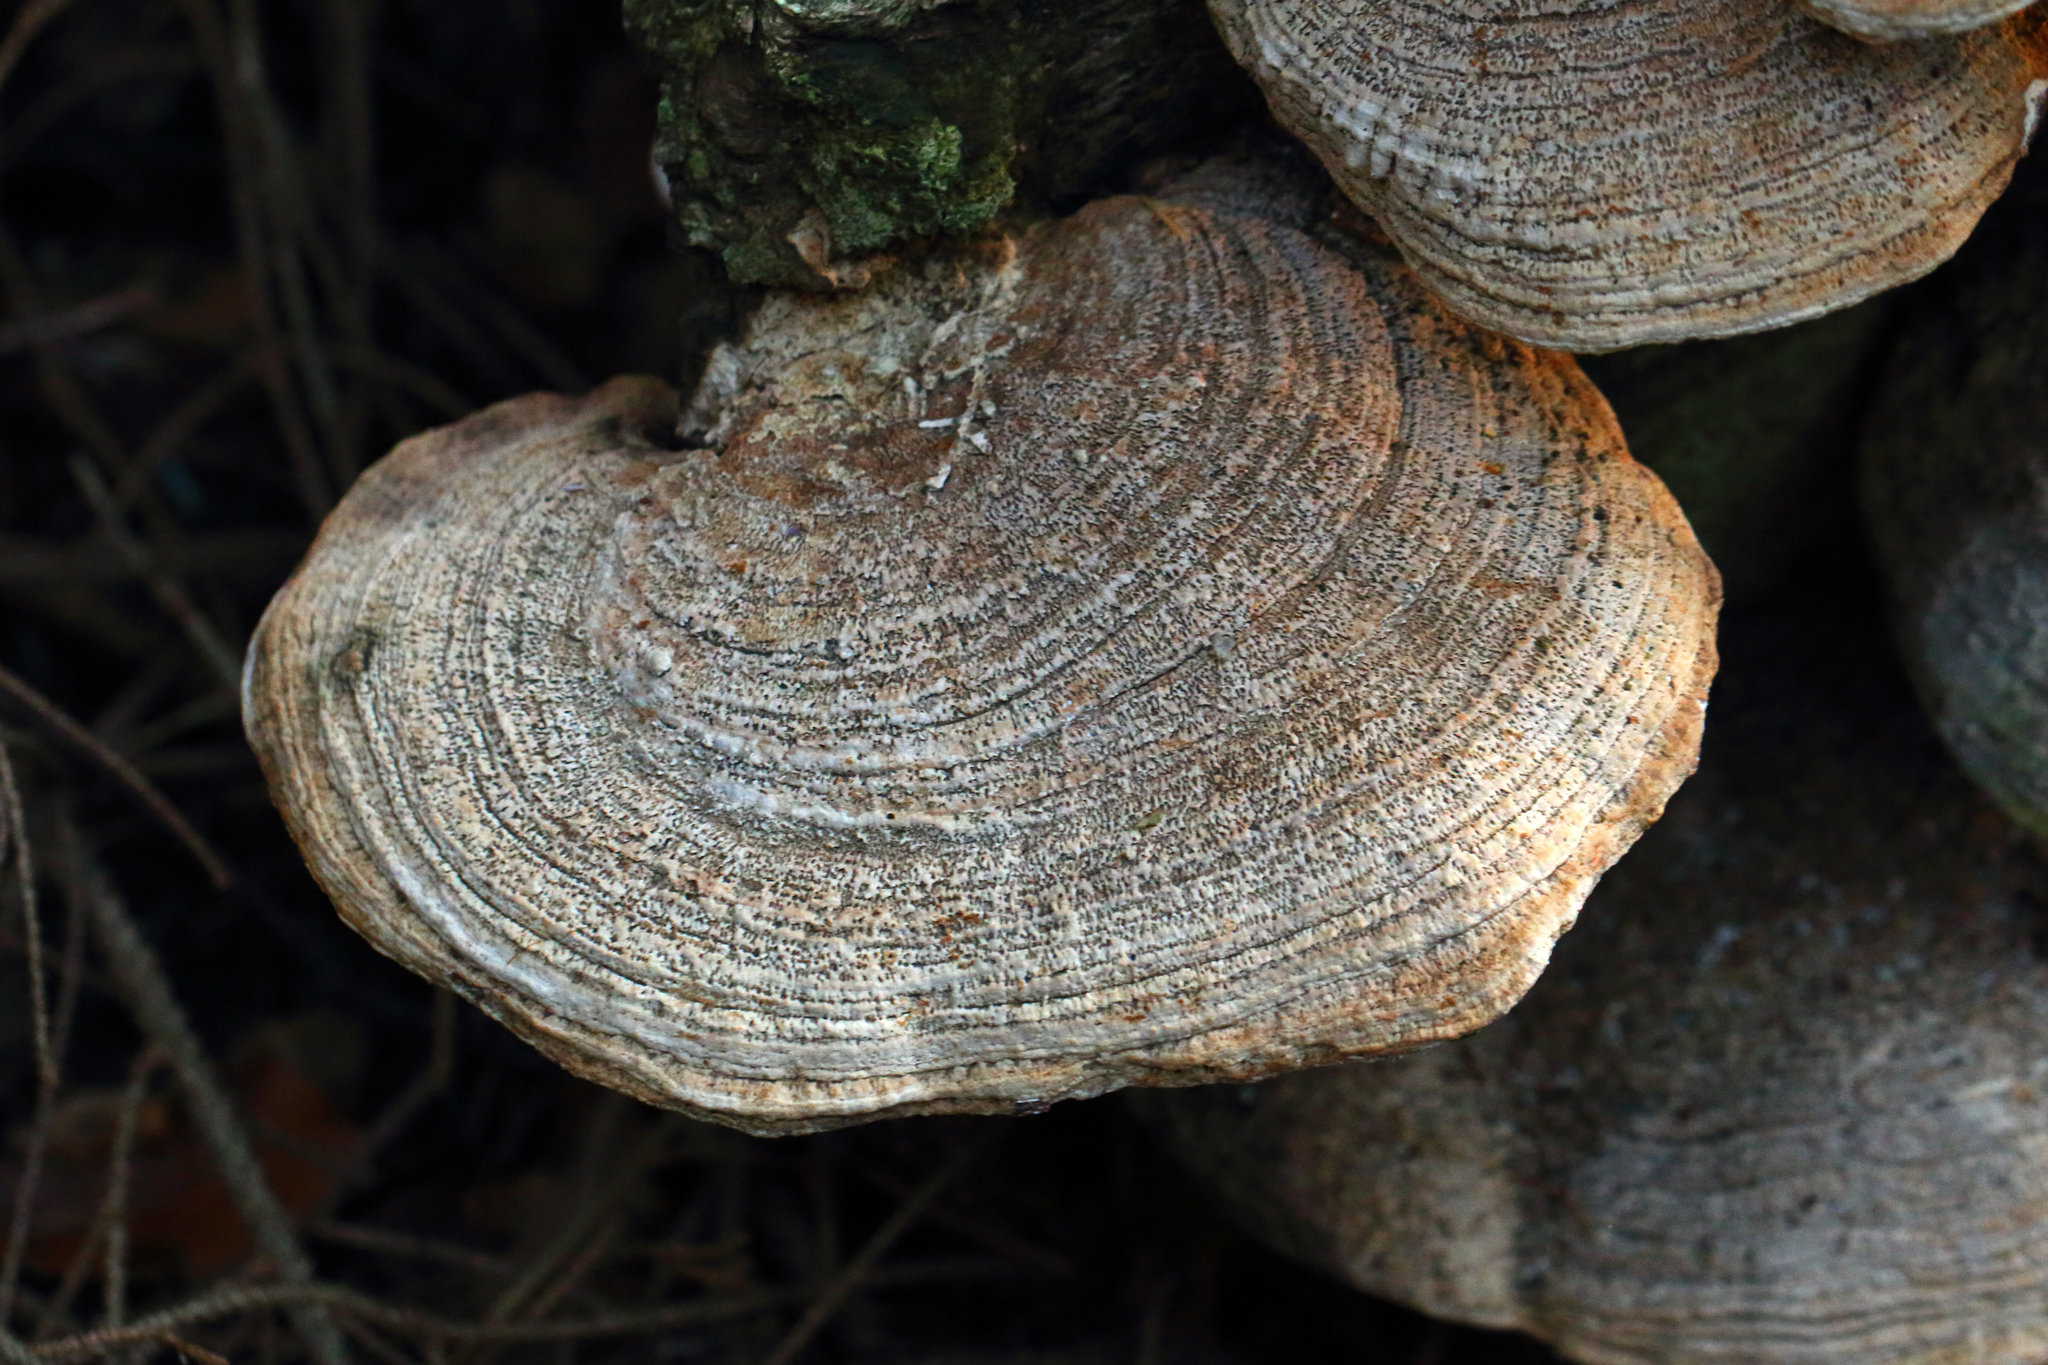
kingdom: Fungi
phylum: Basidiomycota
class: Agaricomycetes
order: Polyporales
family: Fomitopsidaceae
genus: Fomitopsis
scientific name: Fomitopsis
